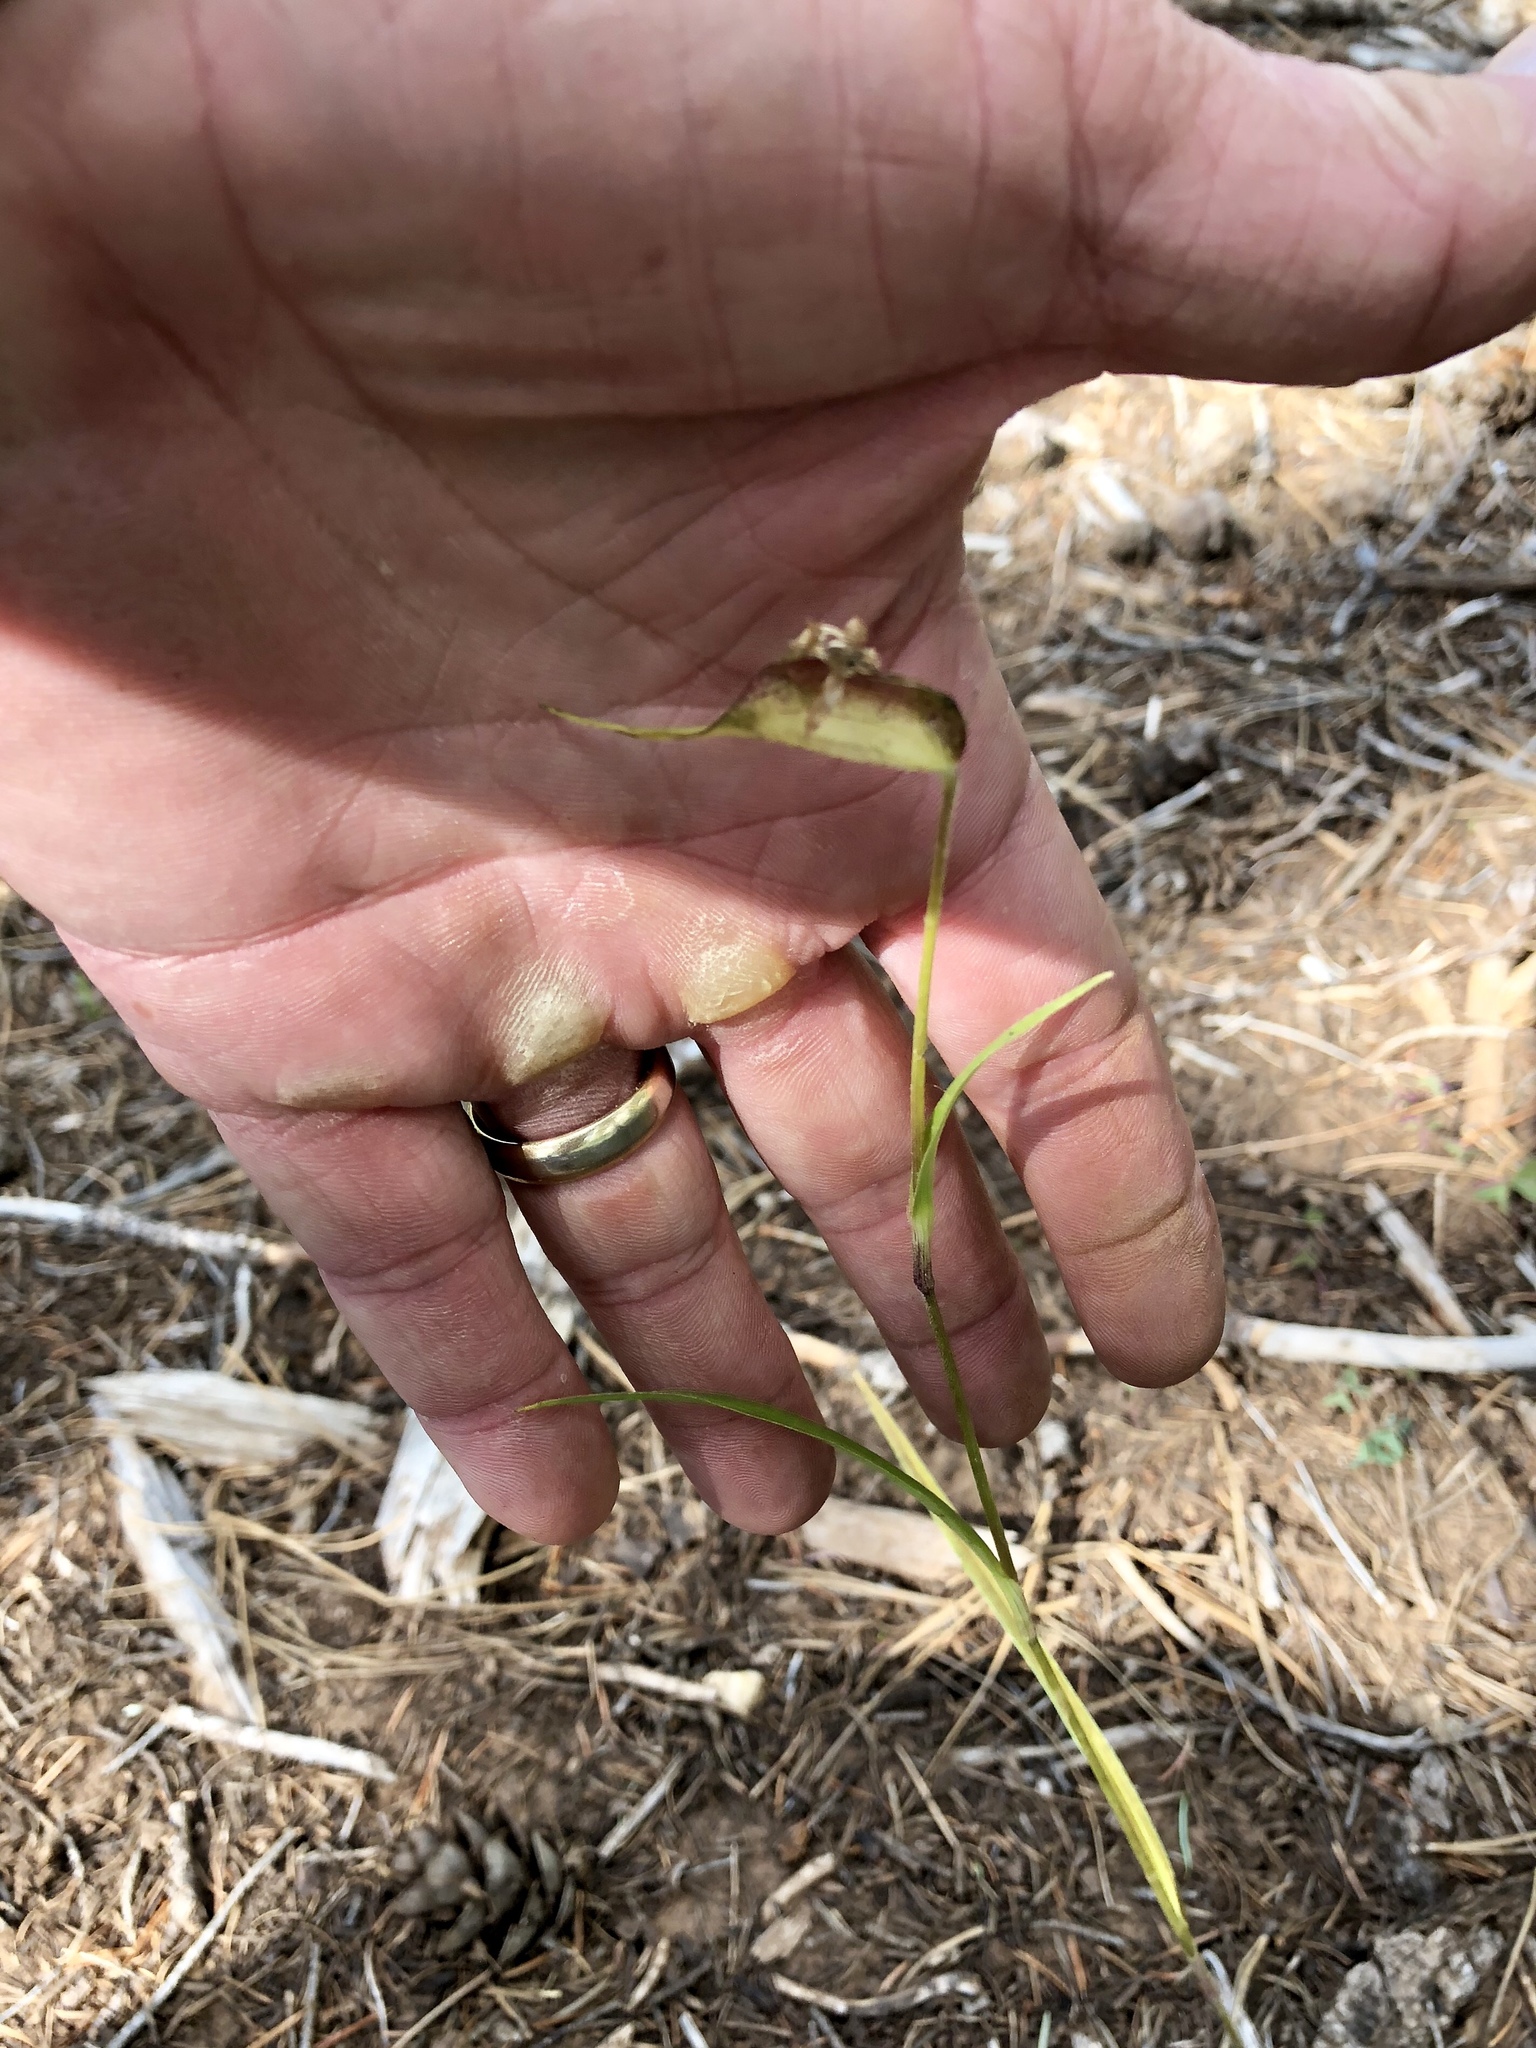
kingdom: Plantae
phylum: Tracheophyta
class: Liliopsida
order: Commelinales
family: Commelinaceae
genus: Commelina
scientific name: Commelina dianthifolia
